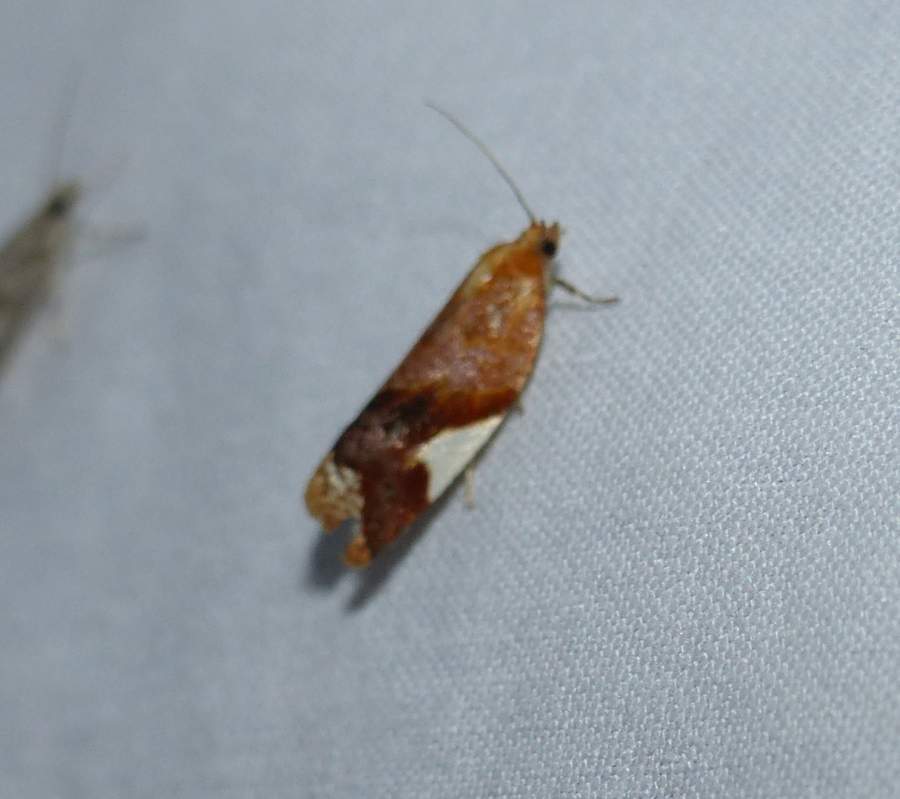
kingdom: Animalia
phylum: Arthropoda
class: Insecta
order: Lepidoptera
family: Tortricidae
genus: Clepsis
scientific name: Clepsis persicana
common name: White triangle tortrix
